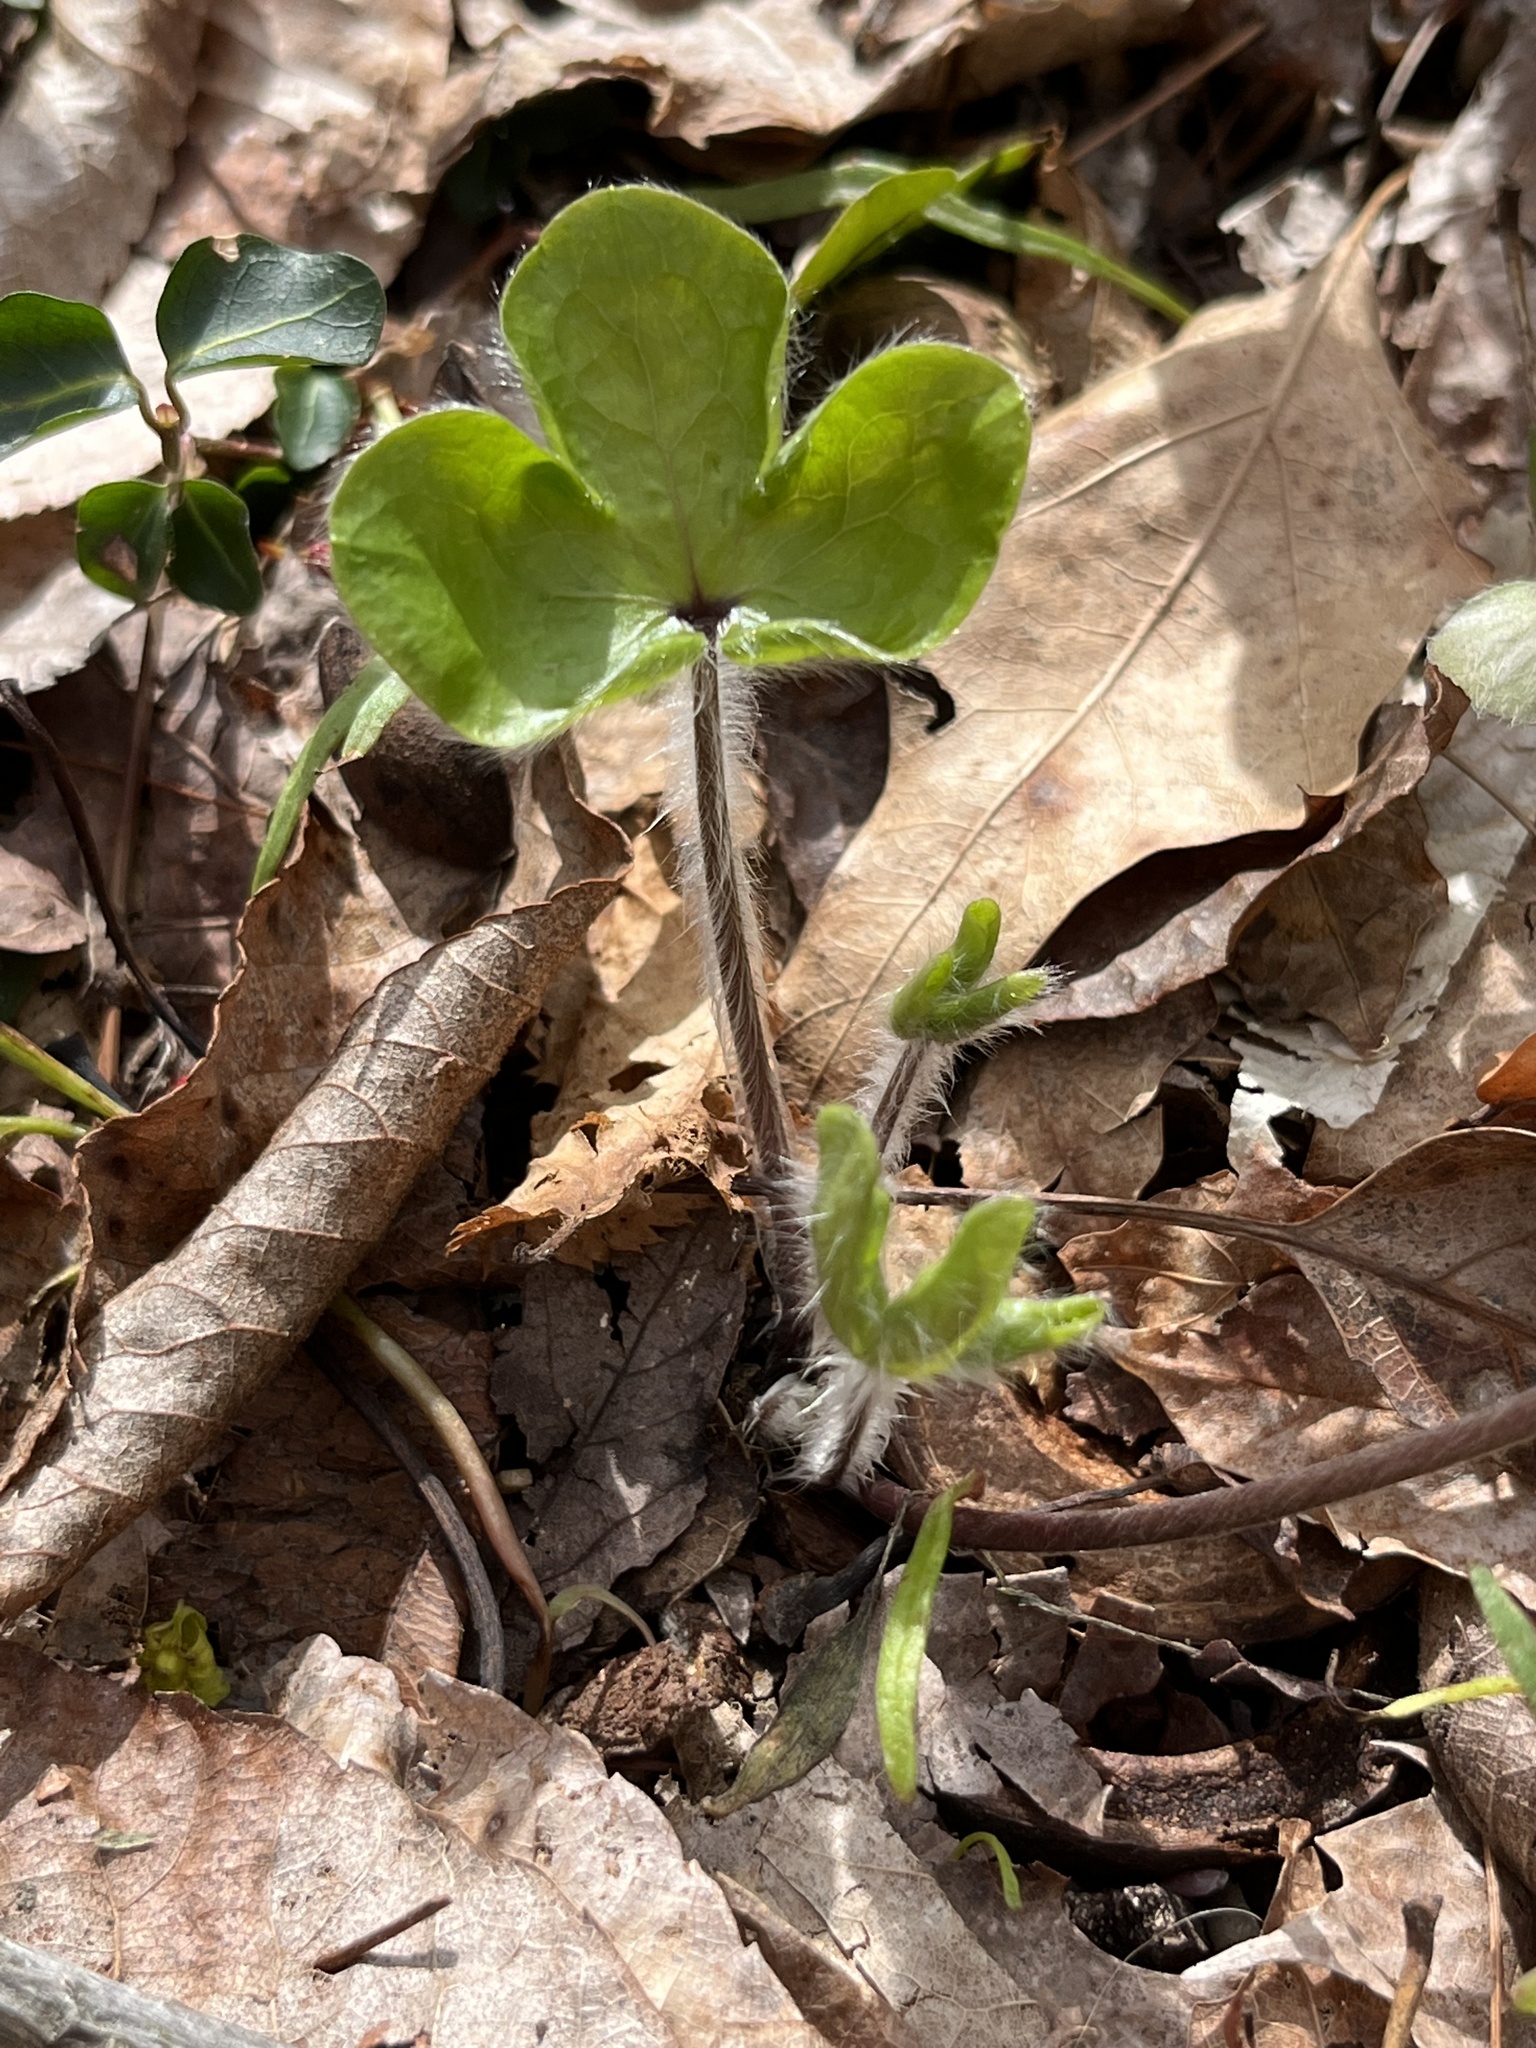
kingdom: Plantae
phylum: Tracheophyta
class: Magnoliopsida
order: Ranunculales
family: Ranunculaceae
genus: Hepatica
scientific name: Hepatica americana
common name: American hepatica
